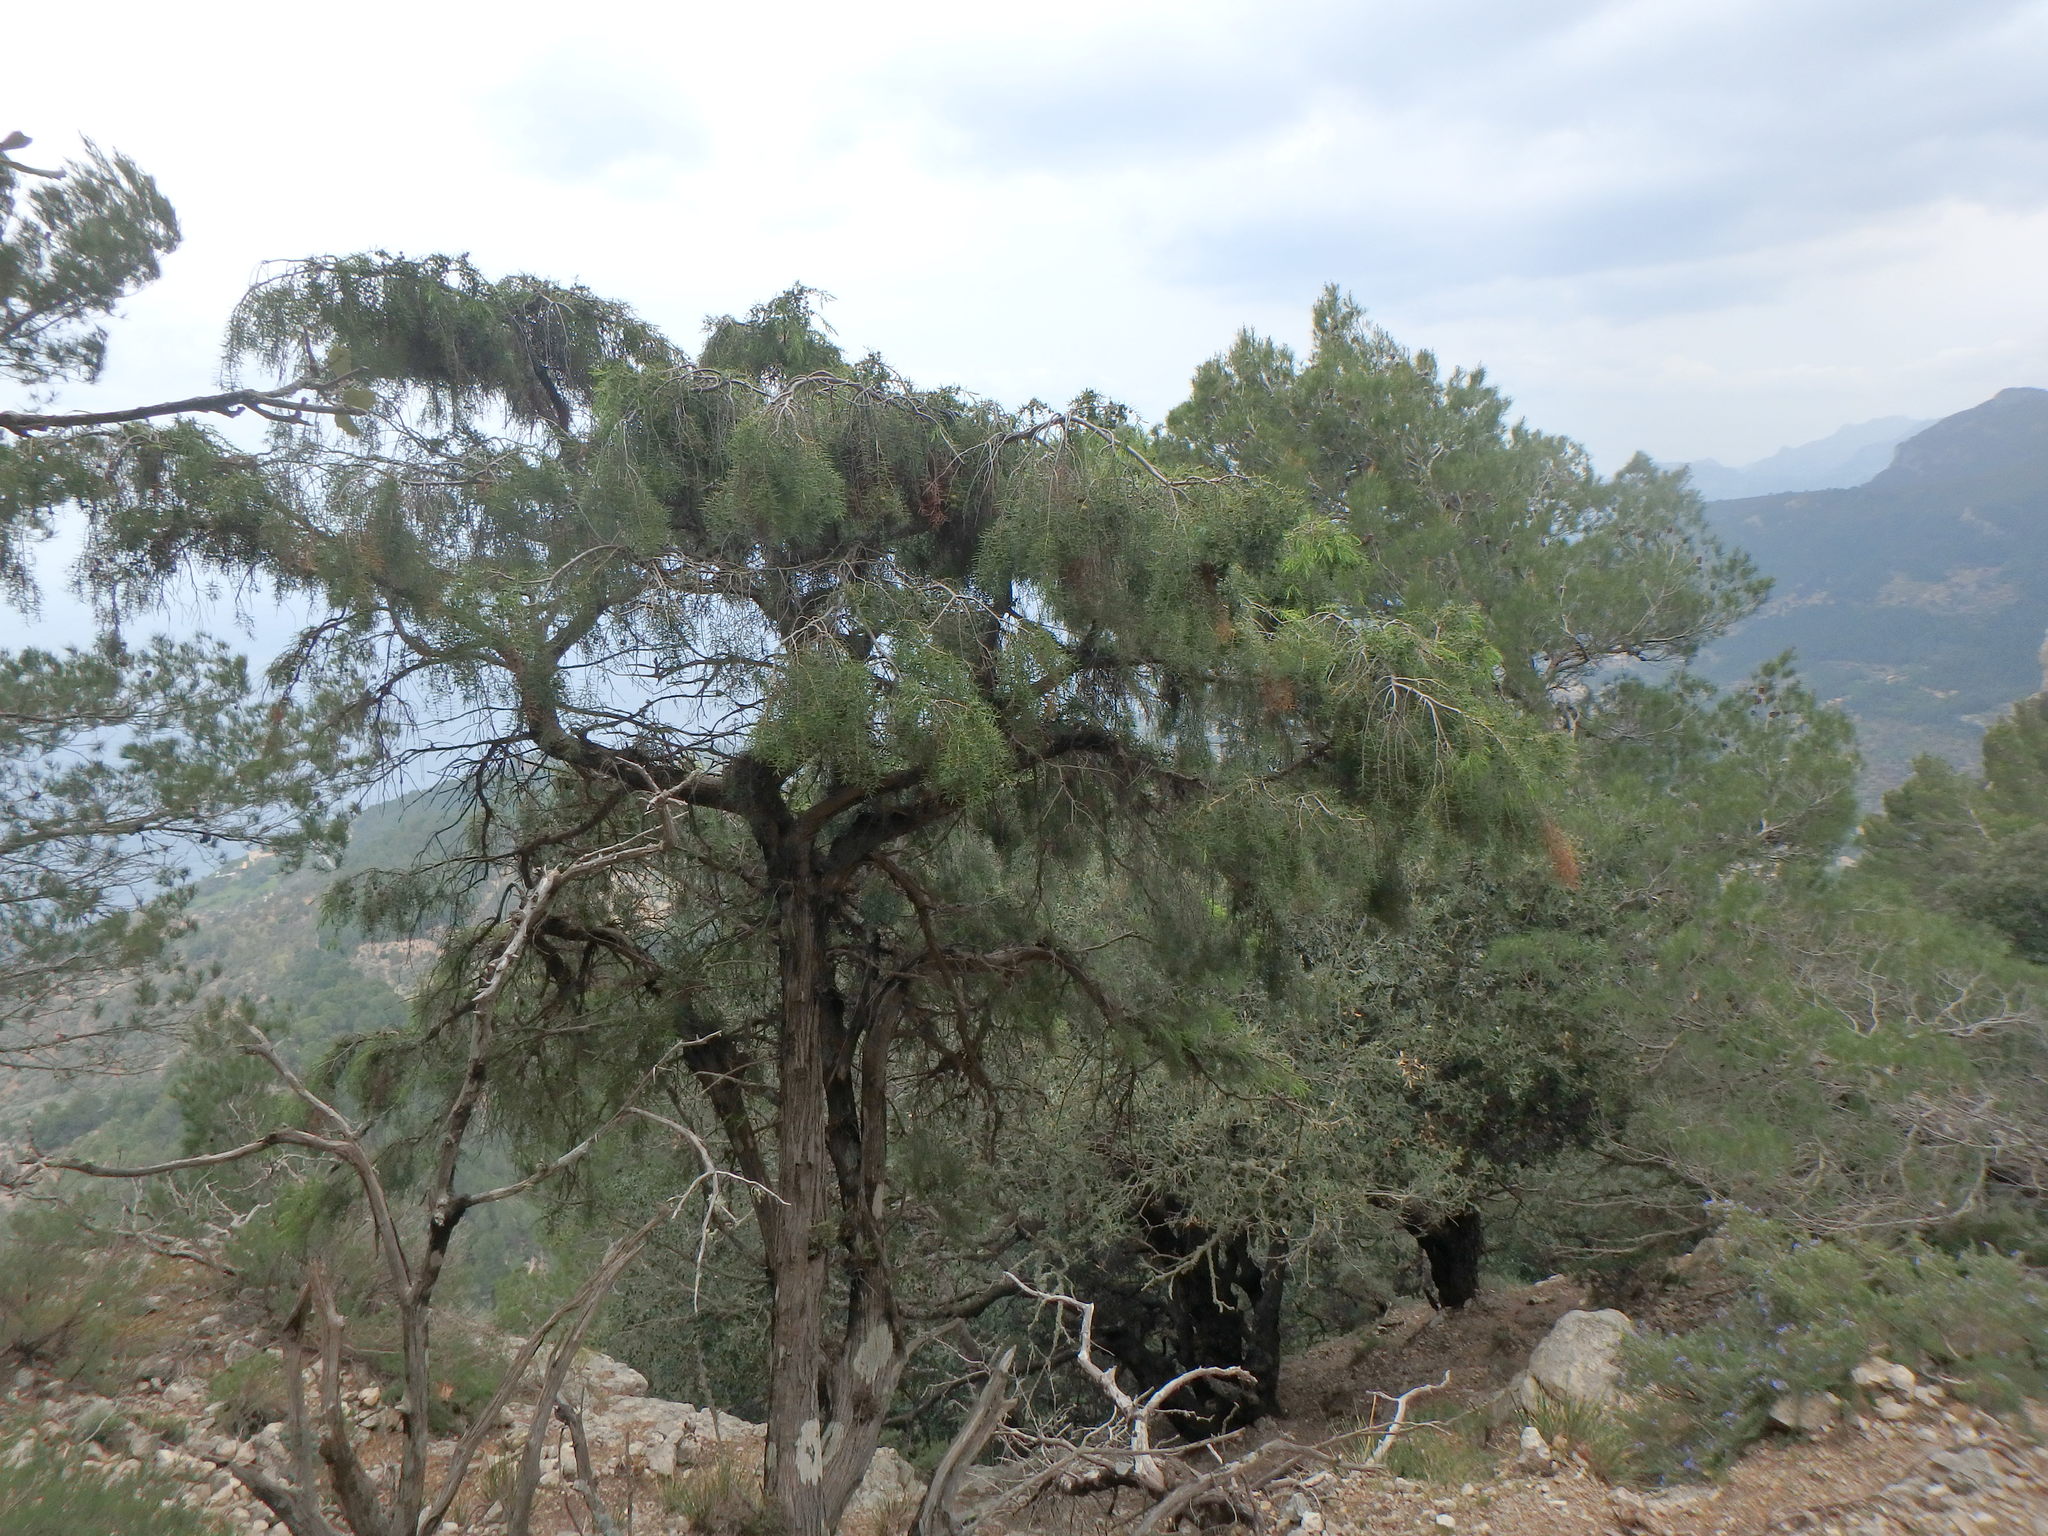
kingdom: Plantae
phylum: Tracheophyta
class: Pinopsida
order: Pinales
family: Cupressaceae
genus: Juniperus
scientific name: Juniperus oxycedrus
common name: Prickly juniper
